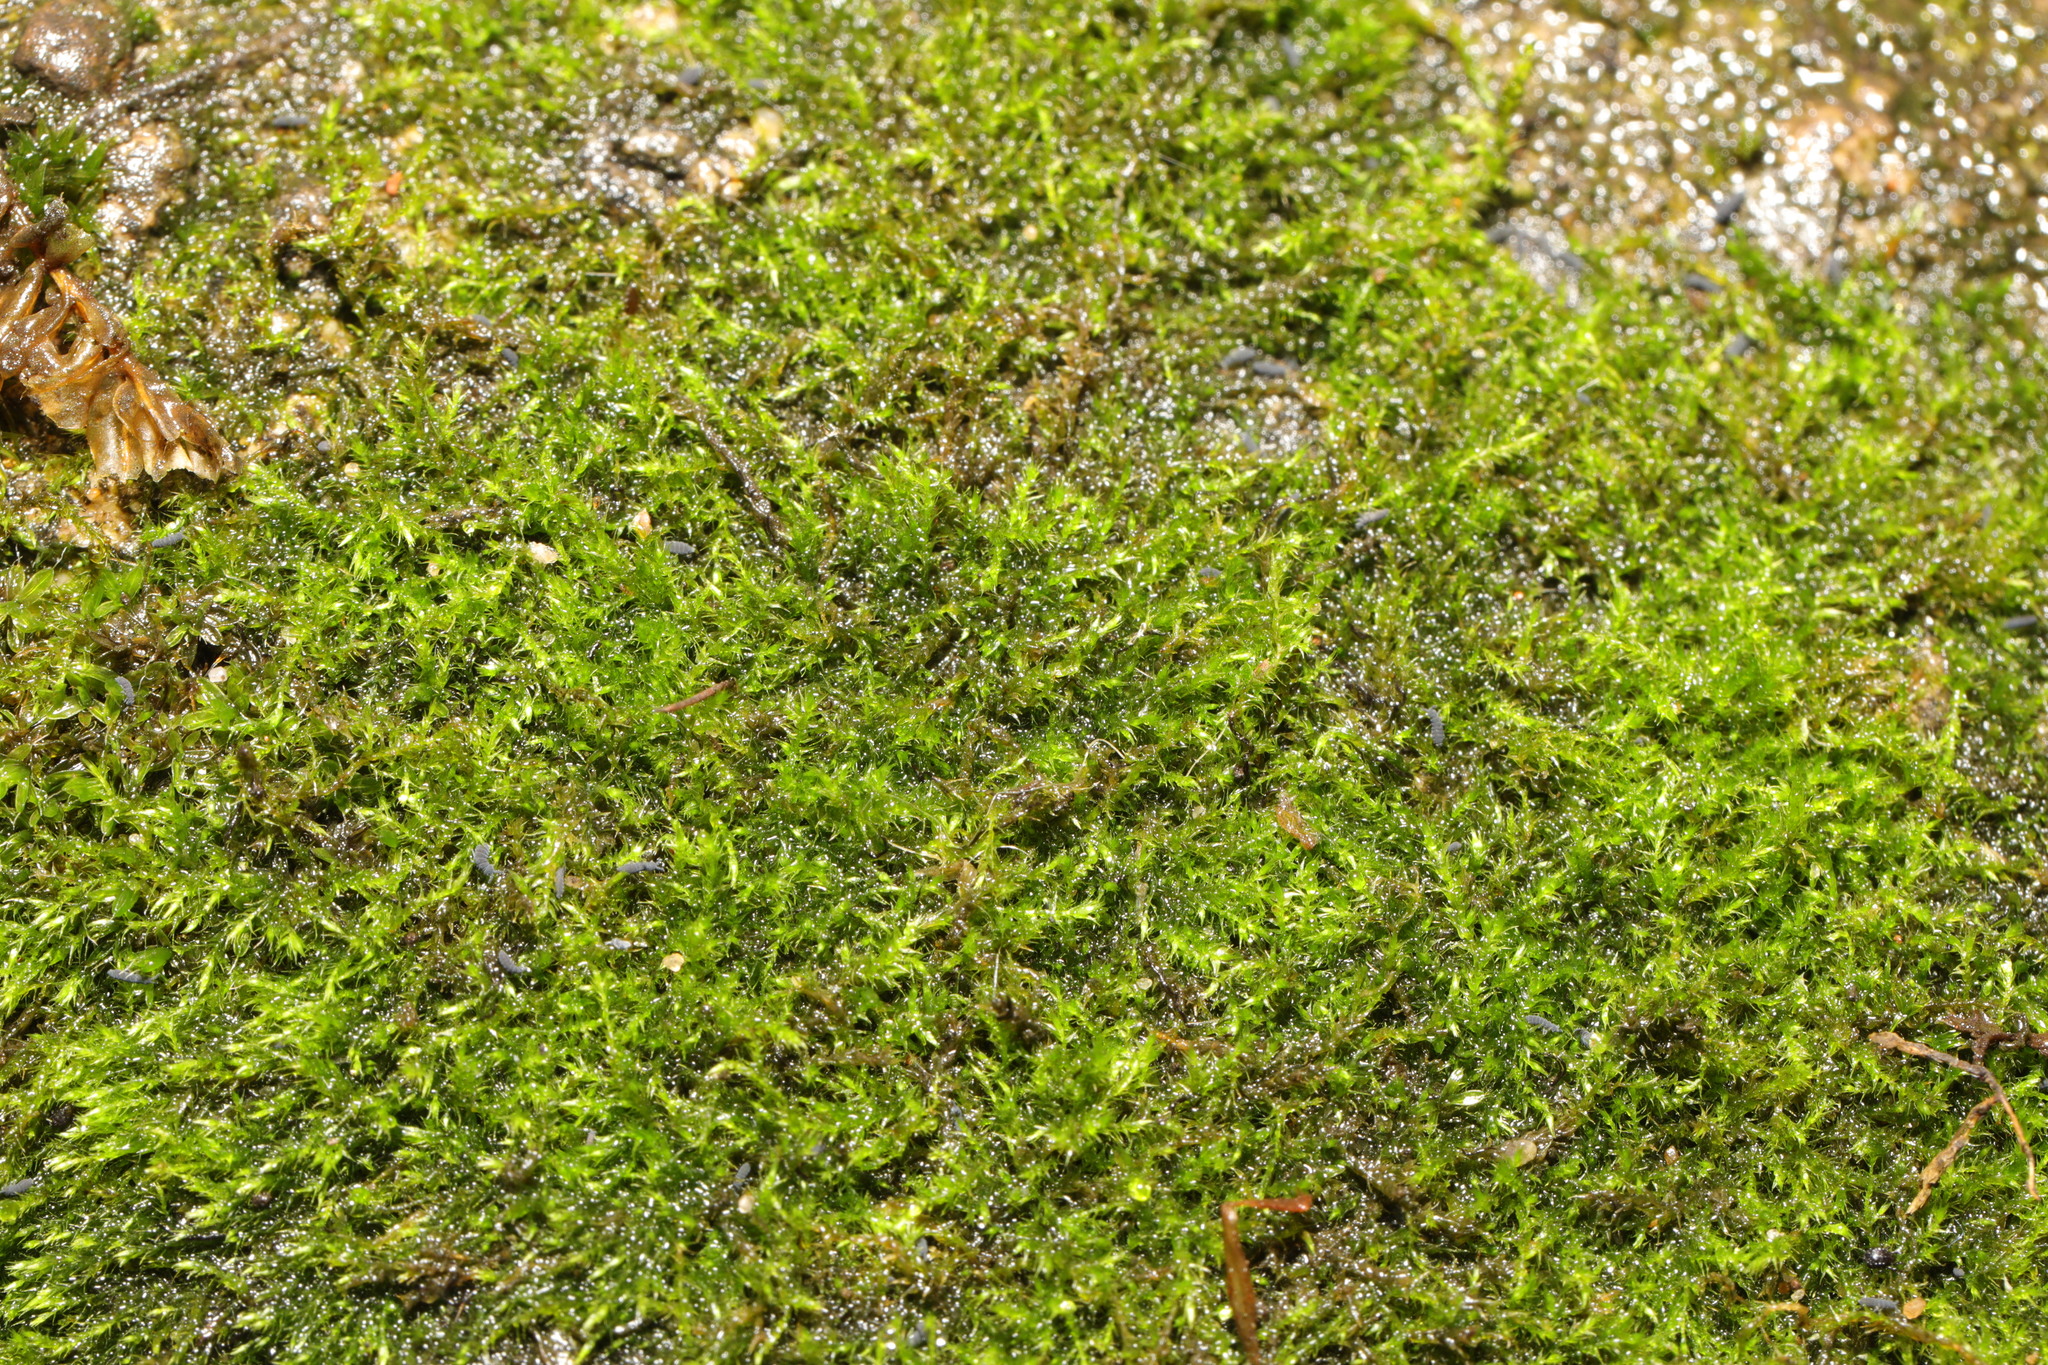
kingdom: Plantae
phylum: Bryophyta
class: Bryopsida
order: Hypnales
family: Amblystegiaceae
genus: Amblystegium
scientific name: Amblystegium serpens
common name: Jurkatzka's feather moss
